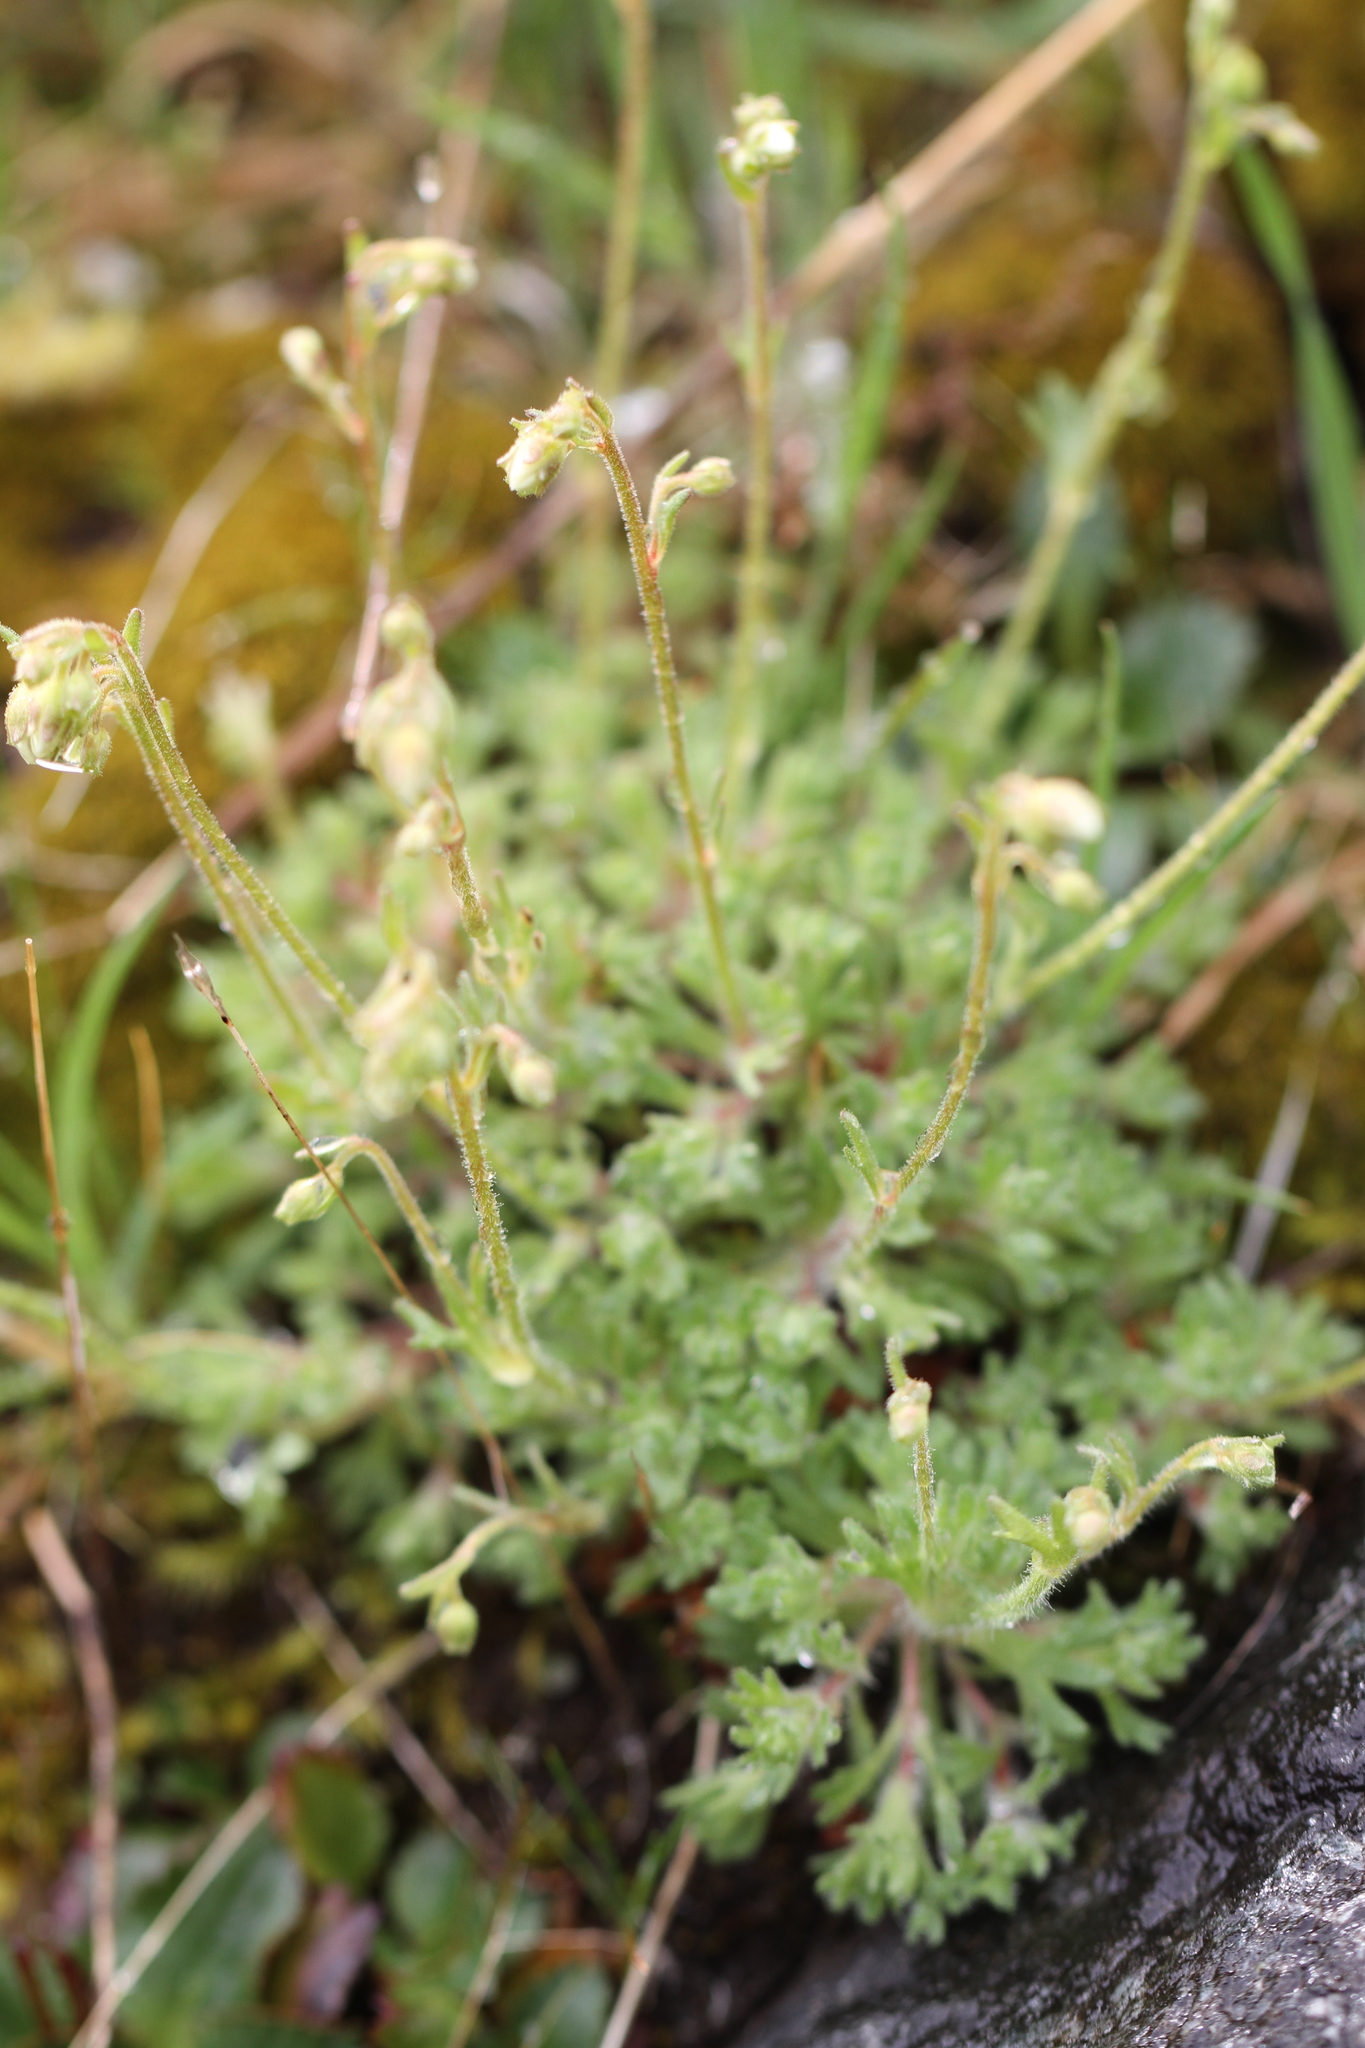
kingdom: Plantae
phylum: Tracheophyta
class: Magnoliopsida
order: Saxifragales
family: Saxifragaceae
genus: Saxifraga
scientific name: Saxifraga cespitosa
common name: Tufted saxifrage
